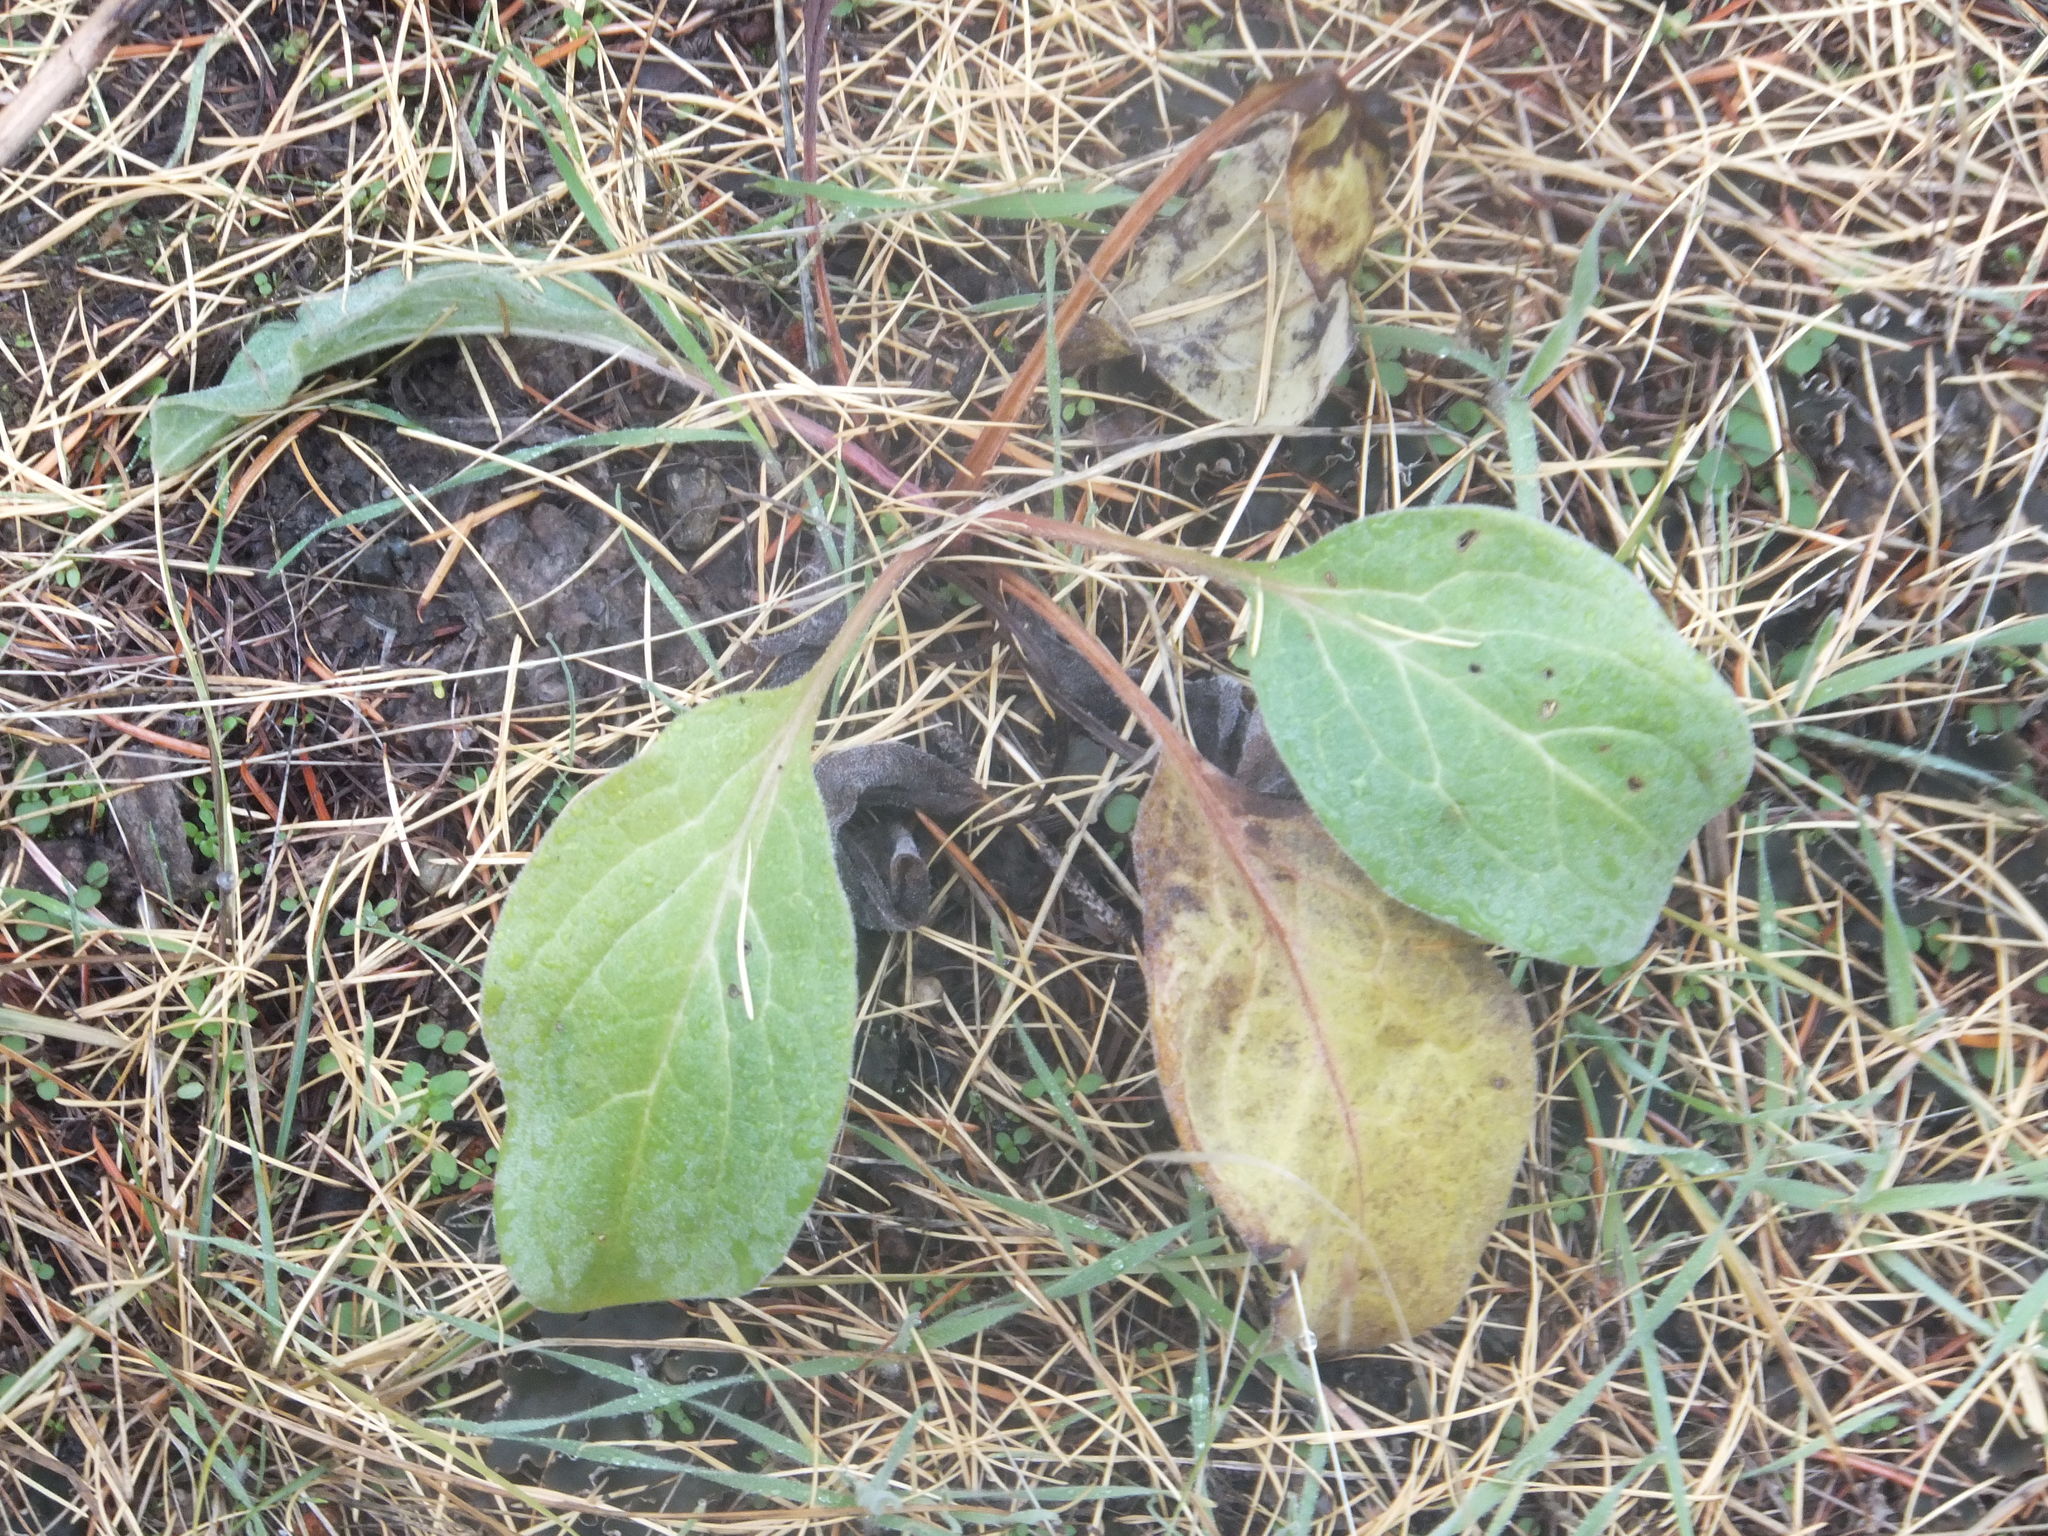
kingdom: Plantae
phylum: Tracheophyta
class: Magnoliopsida
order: Boraginales
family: Boraginaceae
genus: Cynoglossum
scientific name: Cynoglossum officinale
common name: Hound's-tongue
